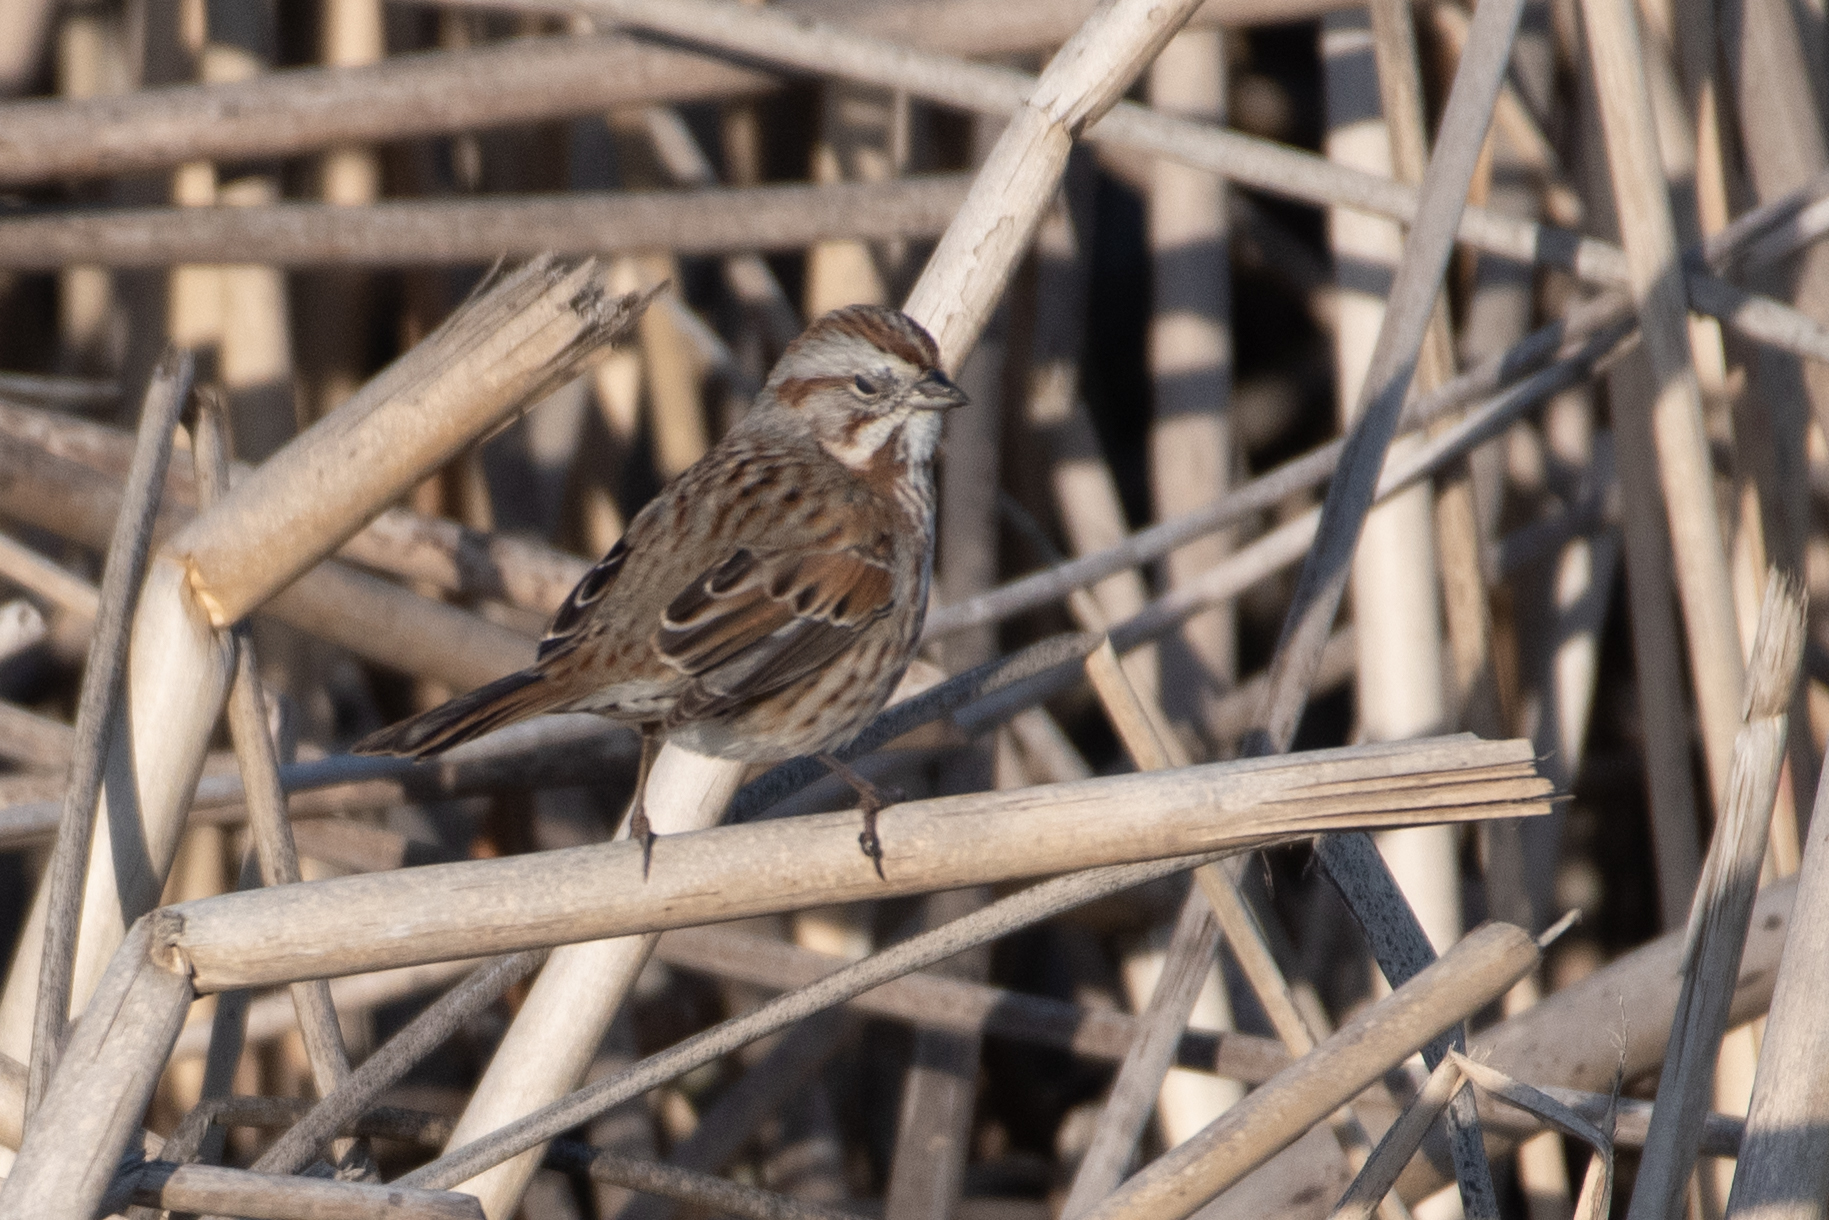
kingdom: Animalia
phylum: Chordata
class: Aves
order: Passeriformes
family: Passerellidae
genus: Melospiza
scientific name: Melospiza melodia
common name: Song sparrow
